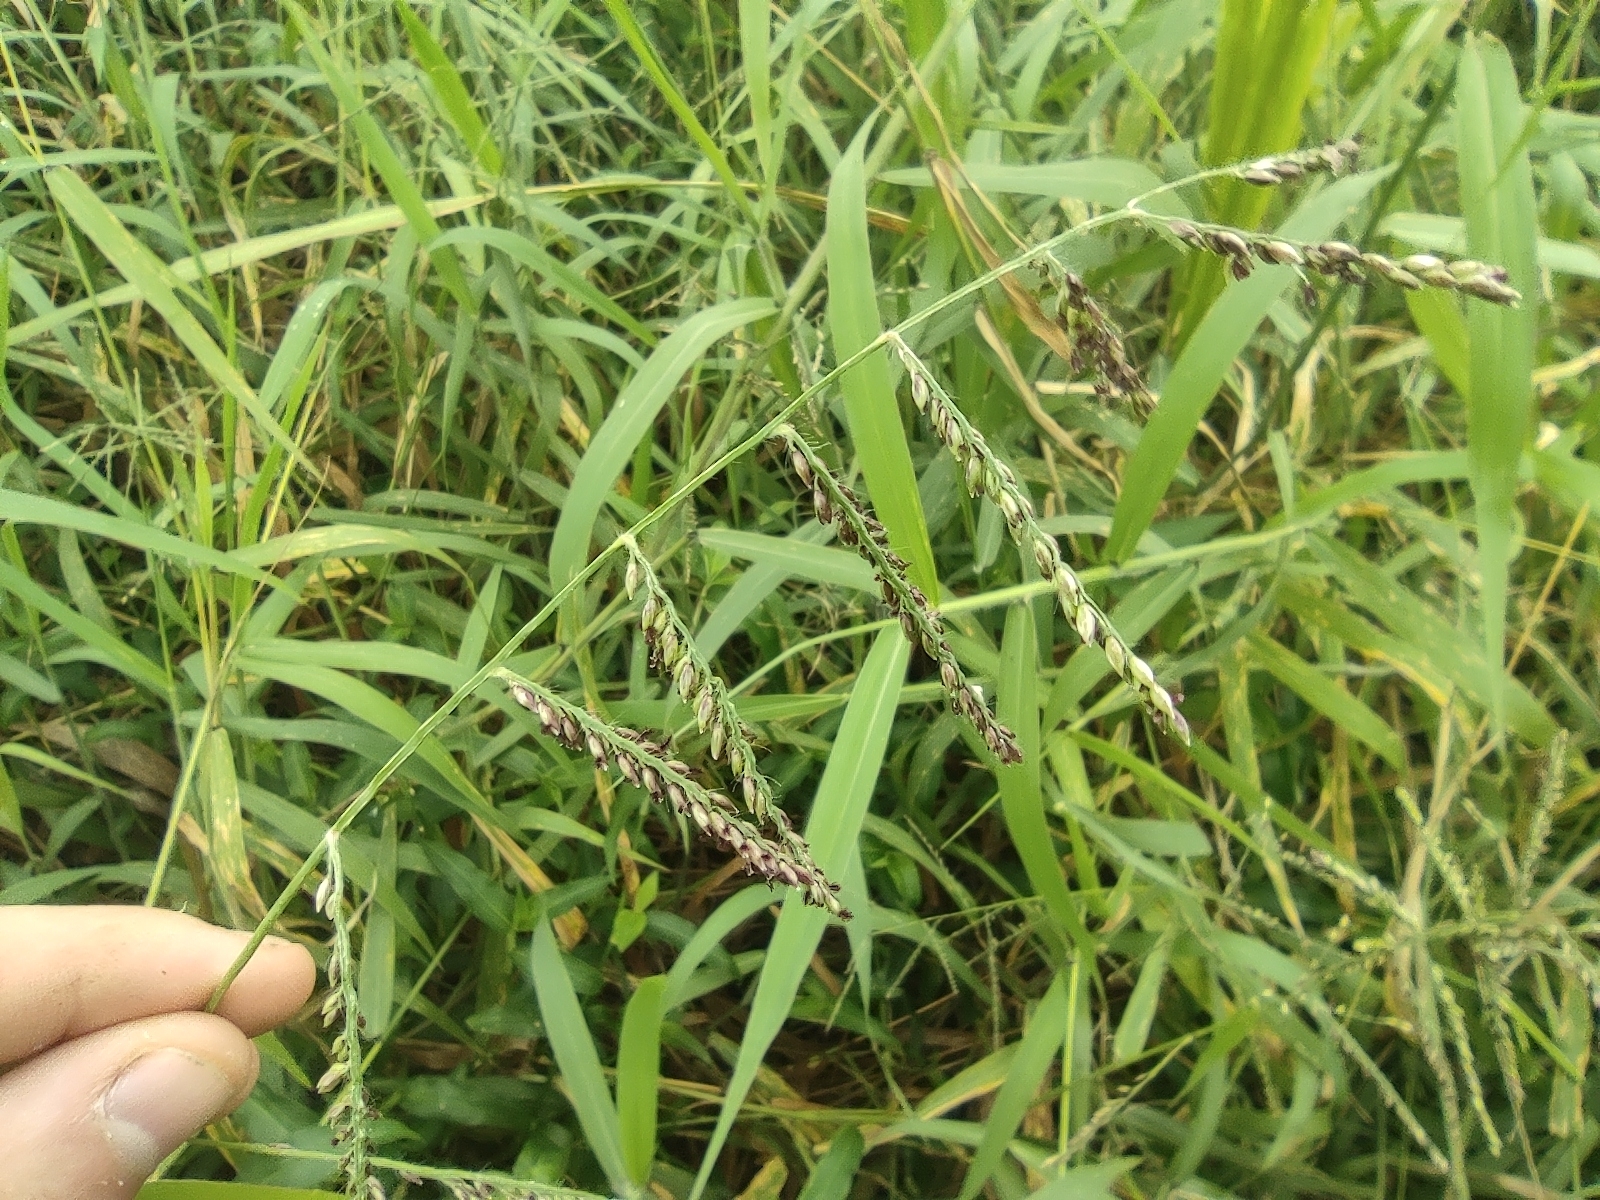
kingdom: Plantae
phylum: Tracheophyta
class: Liliopsida
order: Poales
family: Poaceae
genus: Urochloa
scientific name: Urochloa mutica
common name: Para grass
